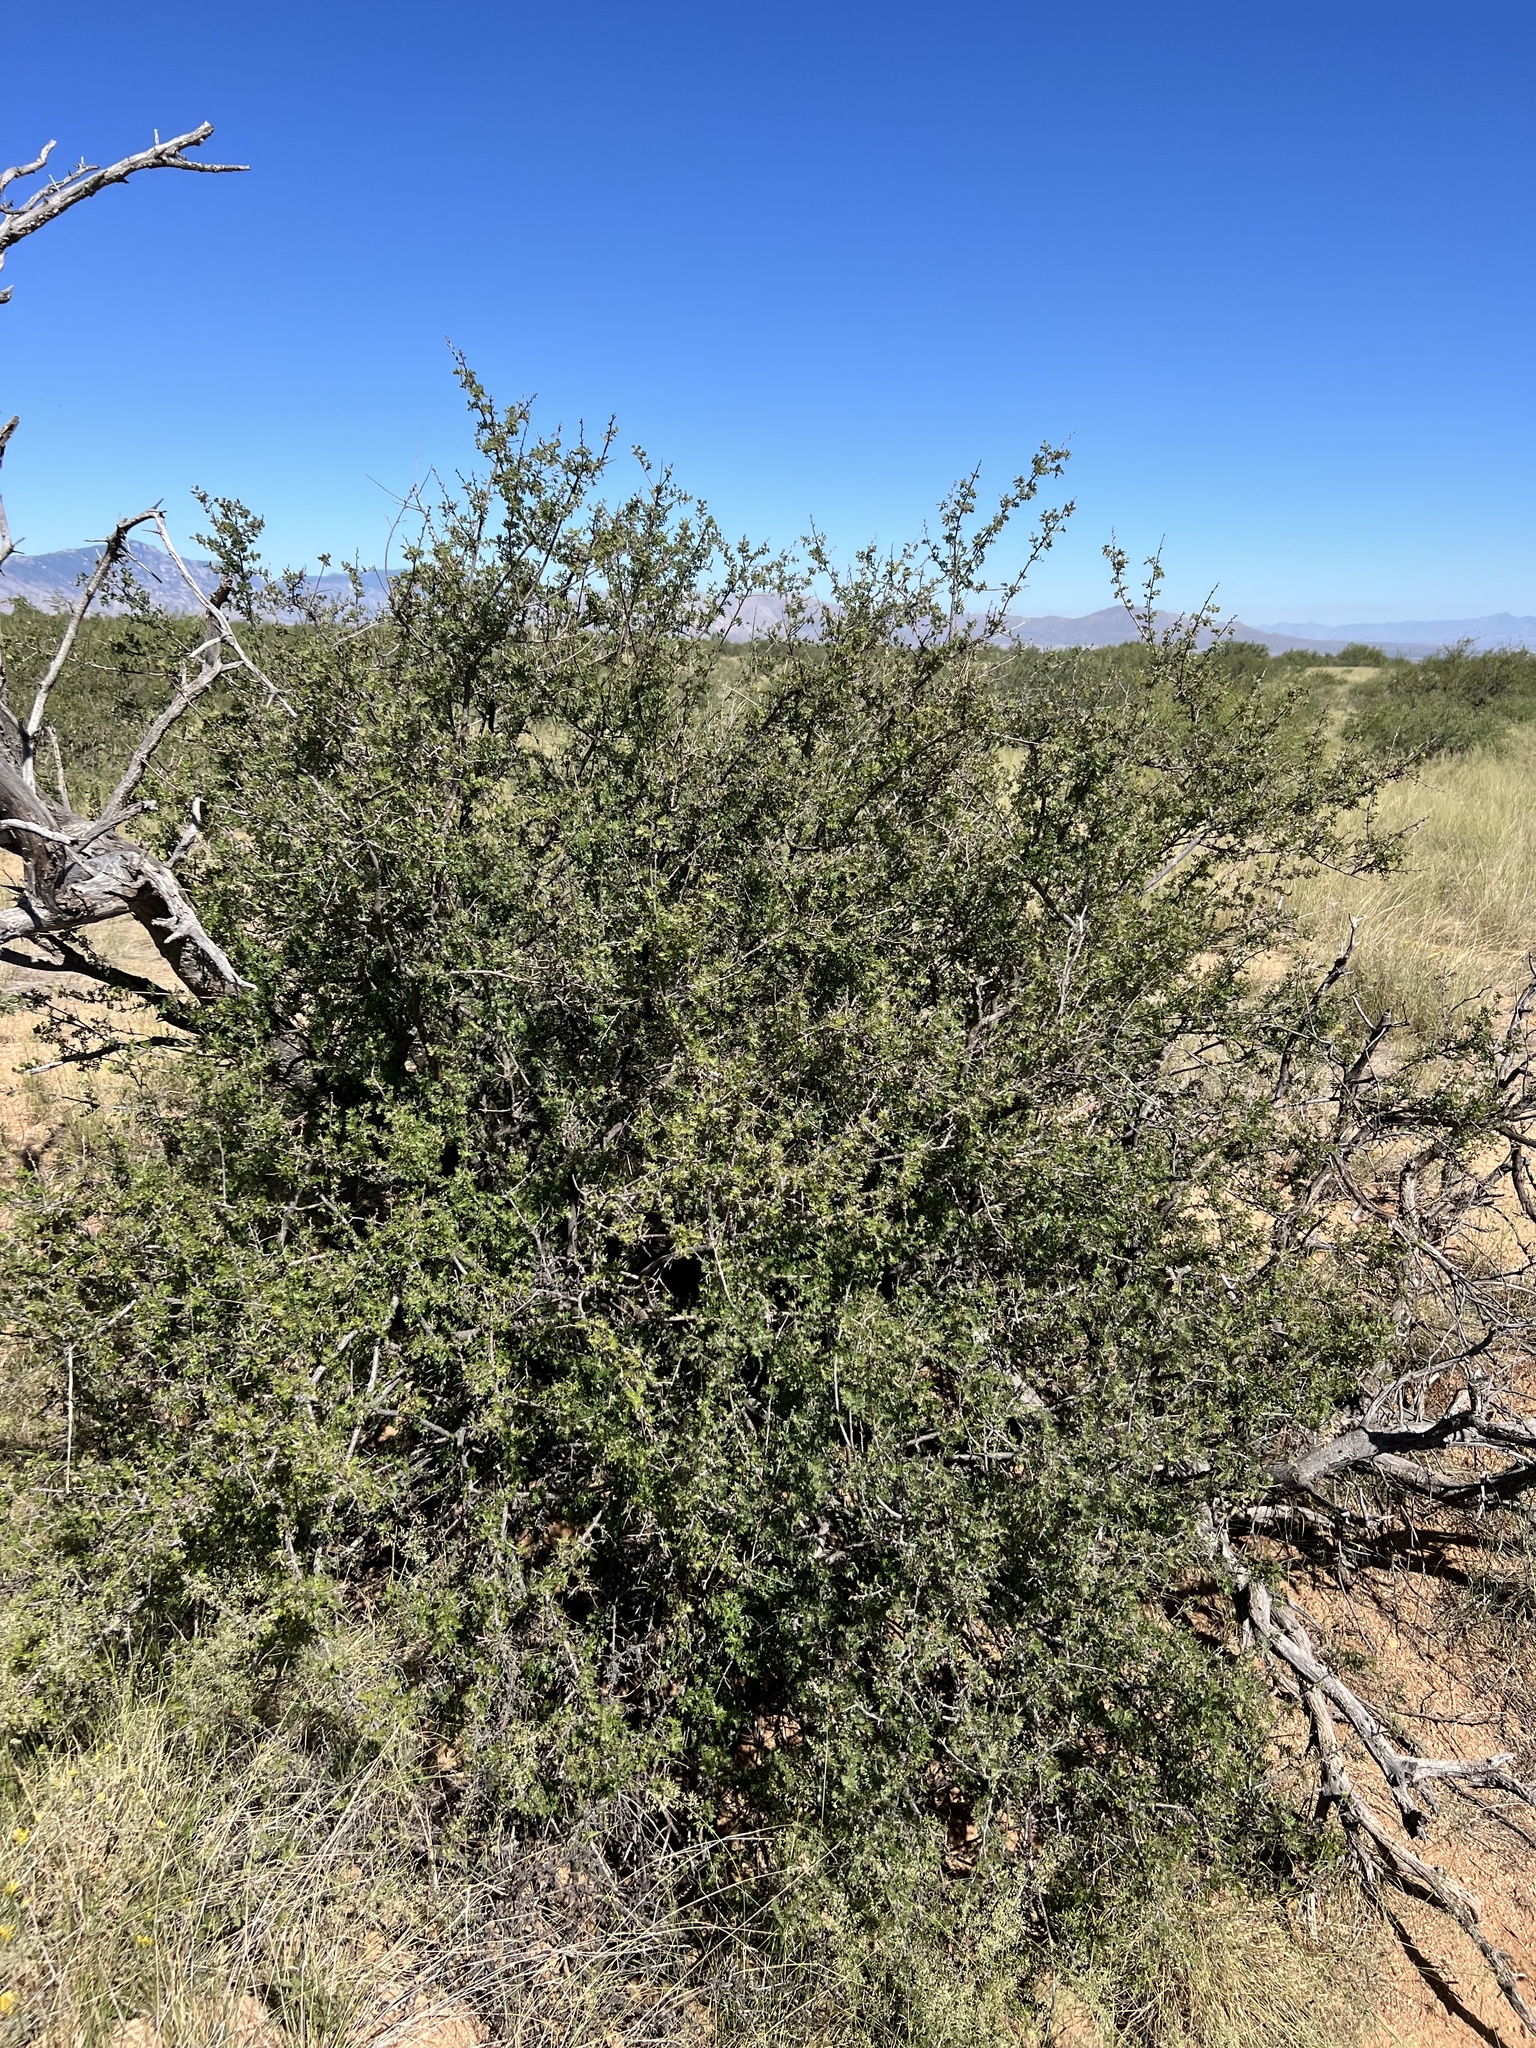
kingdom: Plantae
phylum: Tracheophyta
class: Magnoliopsida
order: Sapindales
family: Anacardiaceae
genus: Rhus
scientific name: Rhus microphylla
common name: Desert sumac
